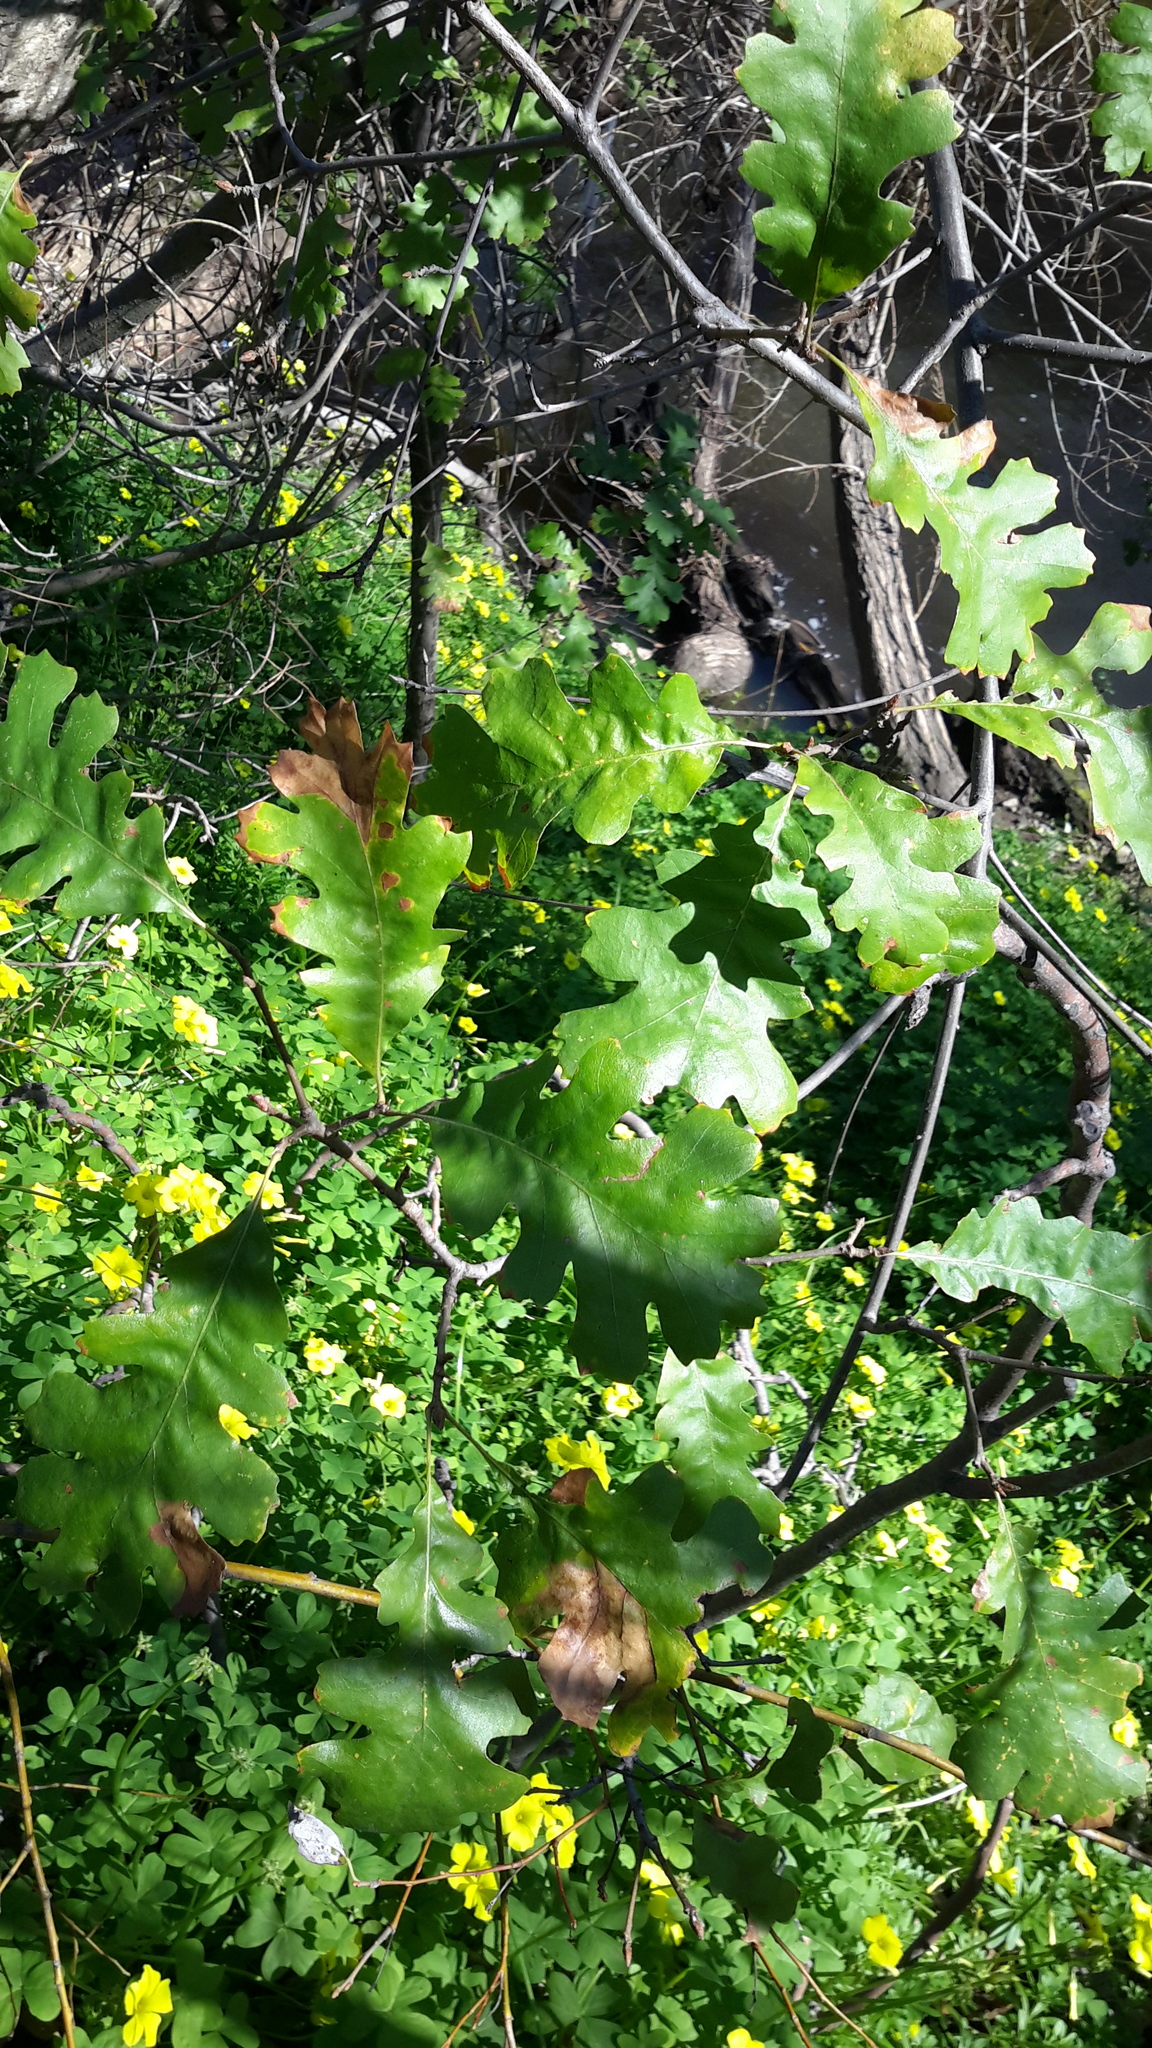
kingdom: Plantae
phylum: Tracheophyta
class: Magnoliopsida
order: Fagales
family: Fagaceae
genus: Quercus
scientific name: Quercus lobata
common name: Valley oak
